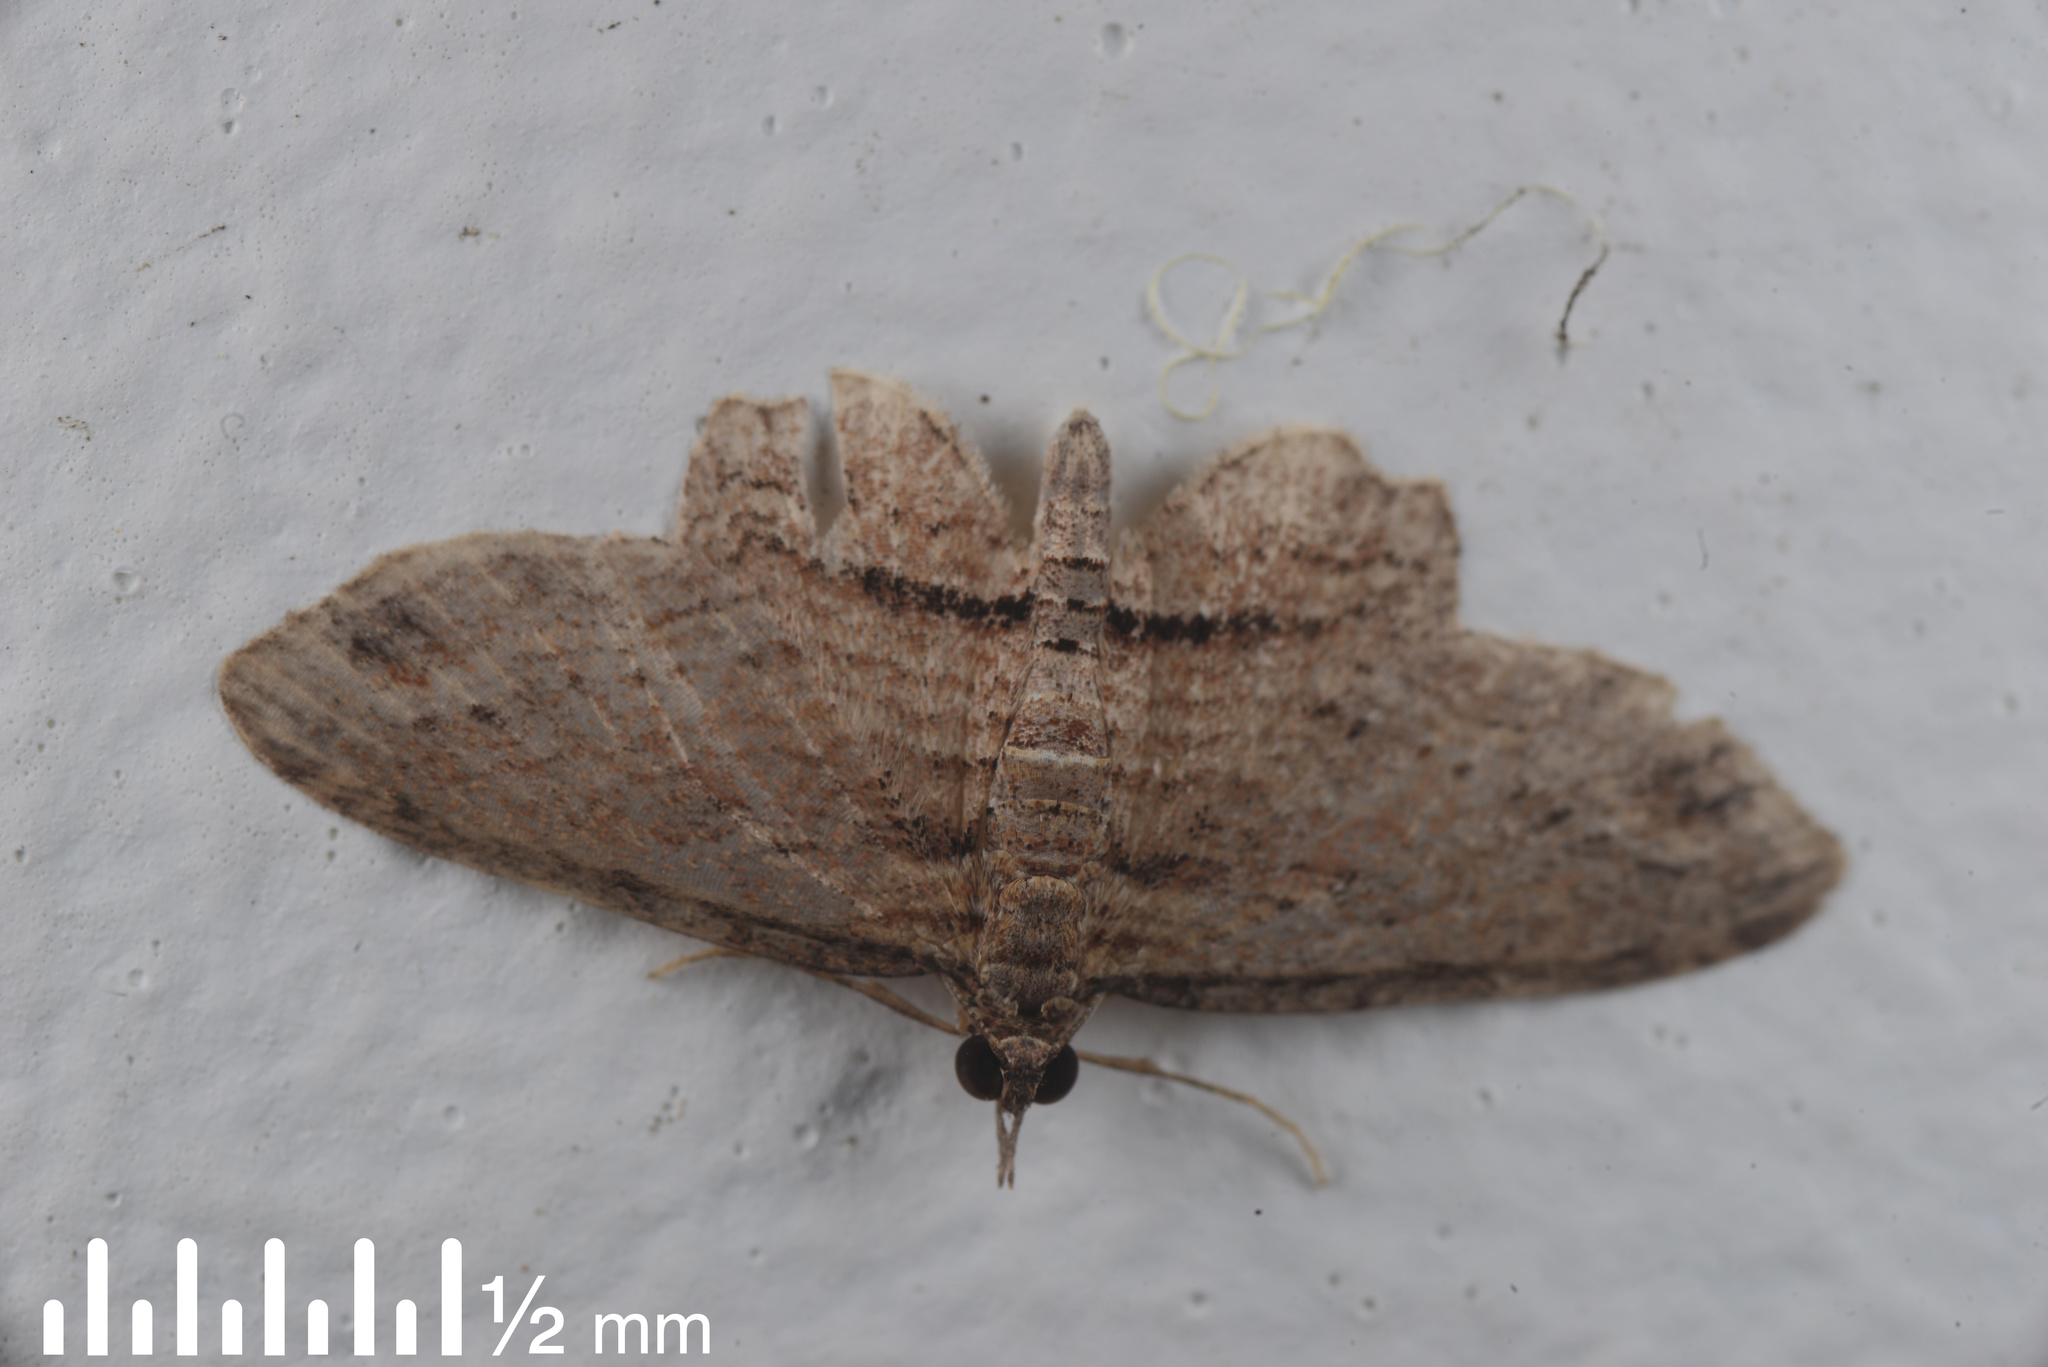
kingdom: Animalia
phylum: Arthropoda
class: Insecta
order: Lepidoptera
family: Geometridae
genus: Chloroclystis
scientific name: Chloroclystis filata
